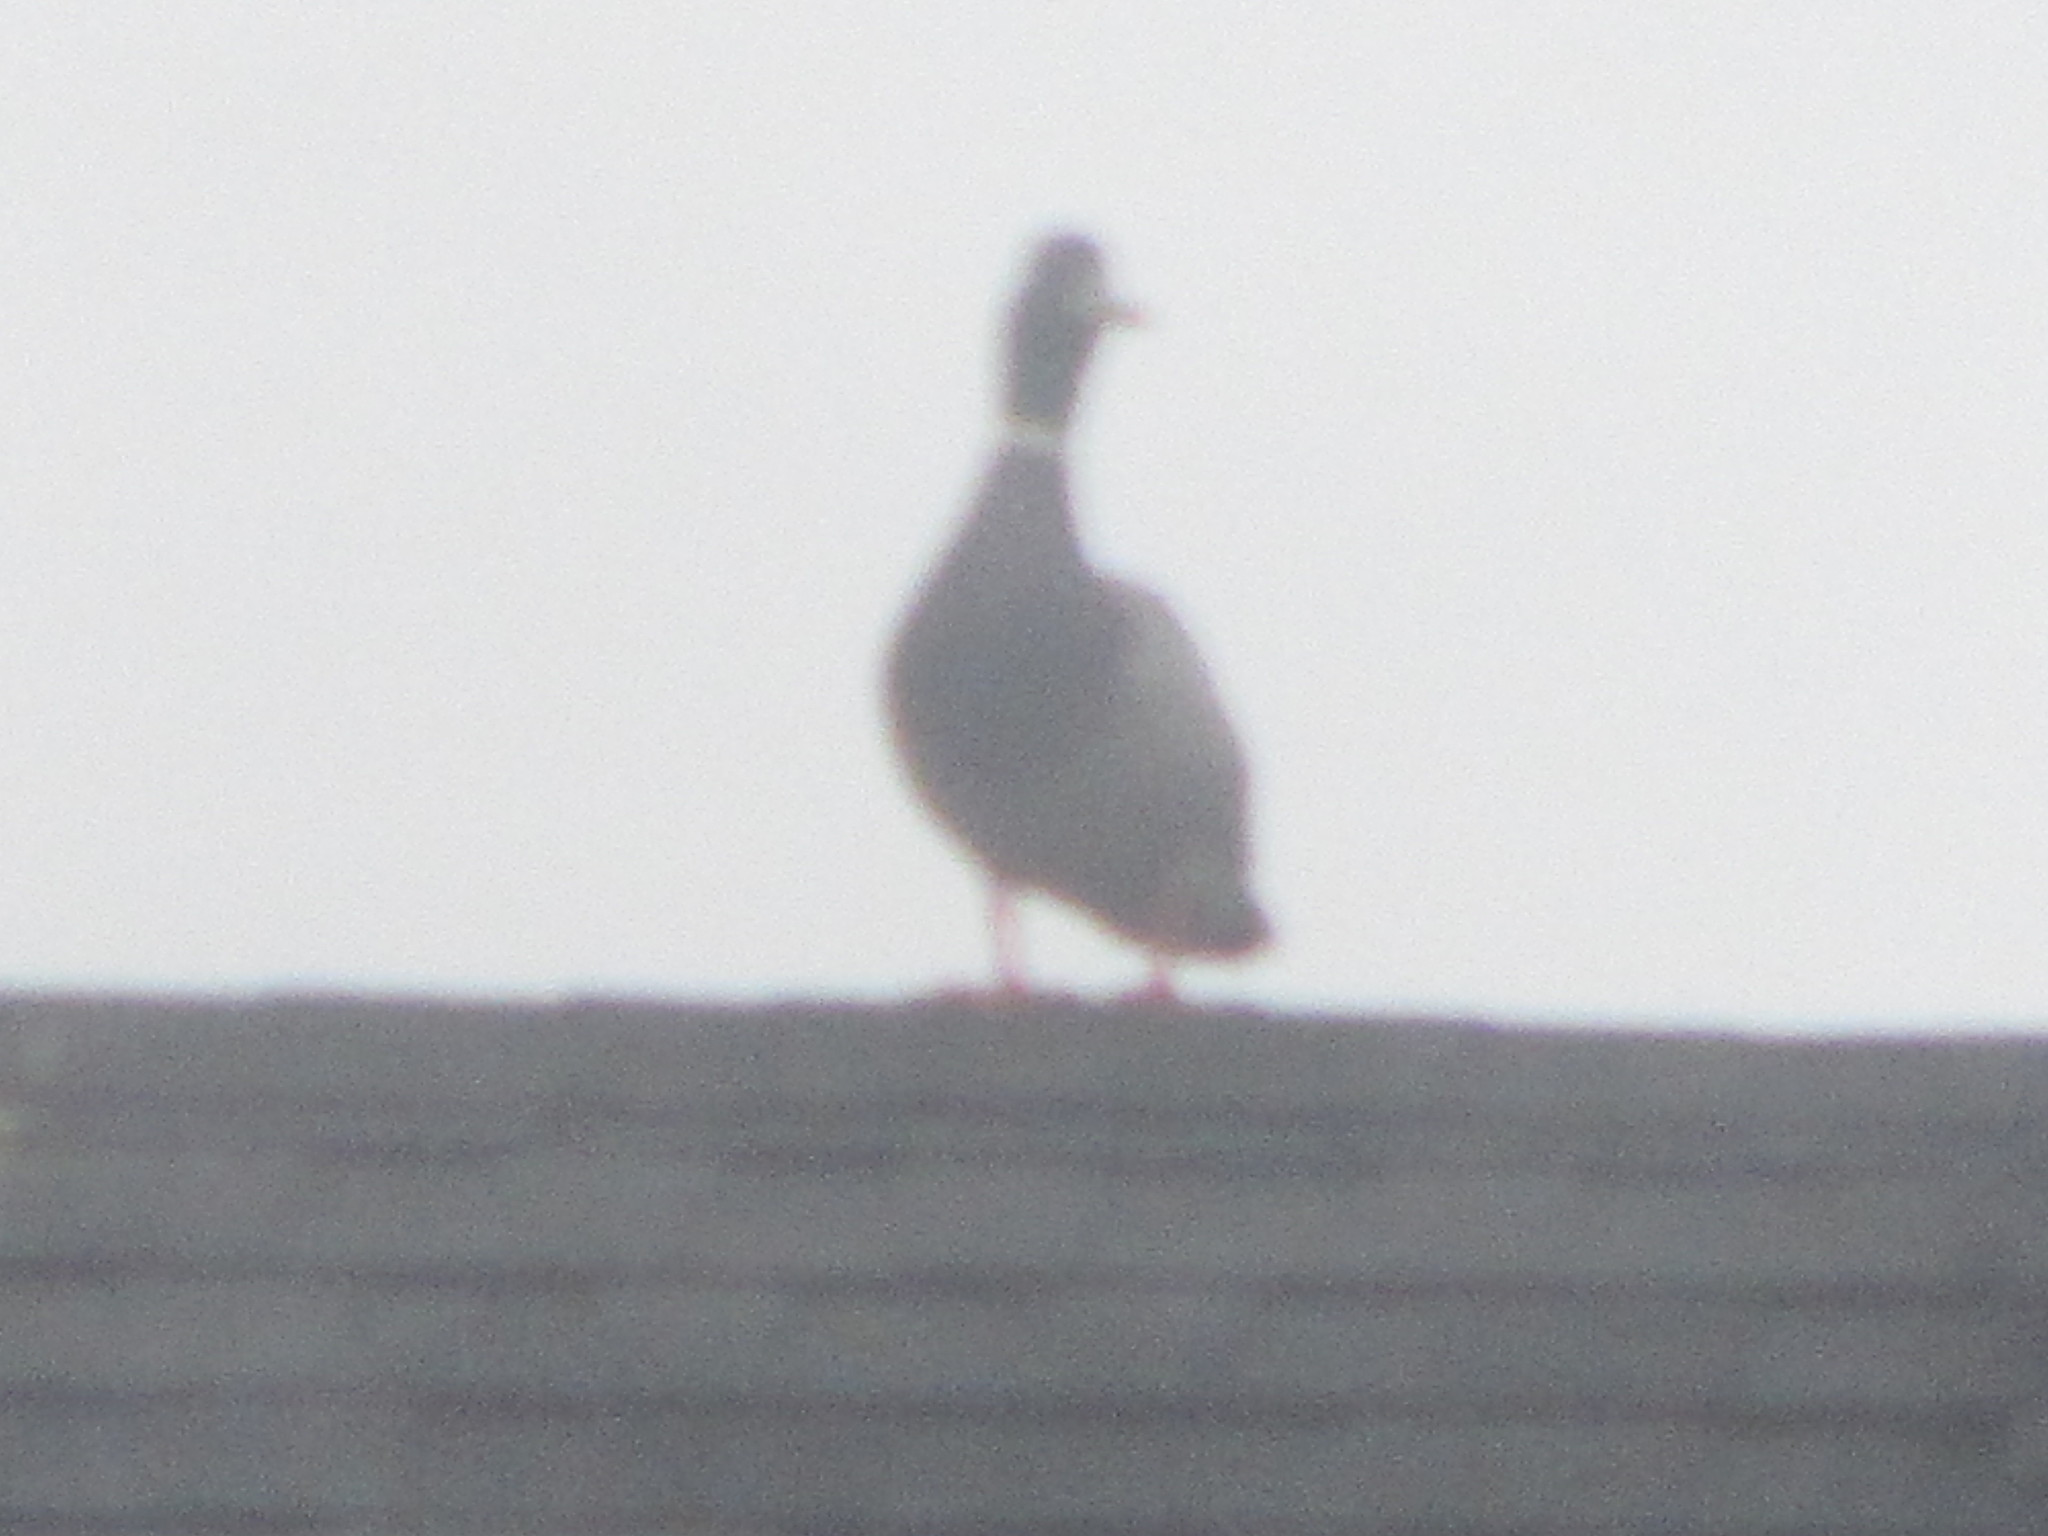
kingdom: Animalia
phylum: Chordata
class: Aves
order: Anseriformes
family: Anatidae
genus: Anas
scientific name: Anas platyrhynchos
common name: Mallard
